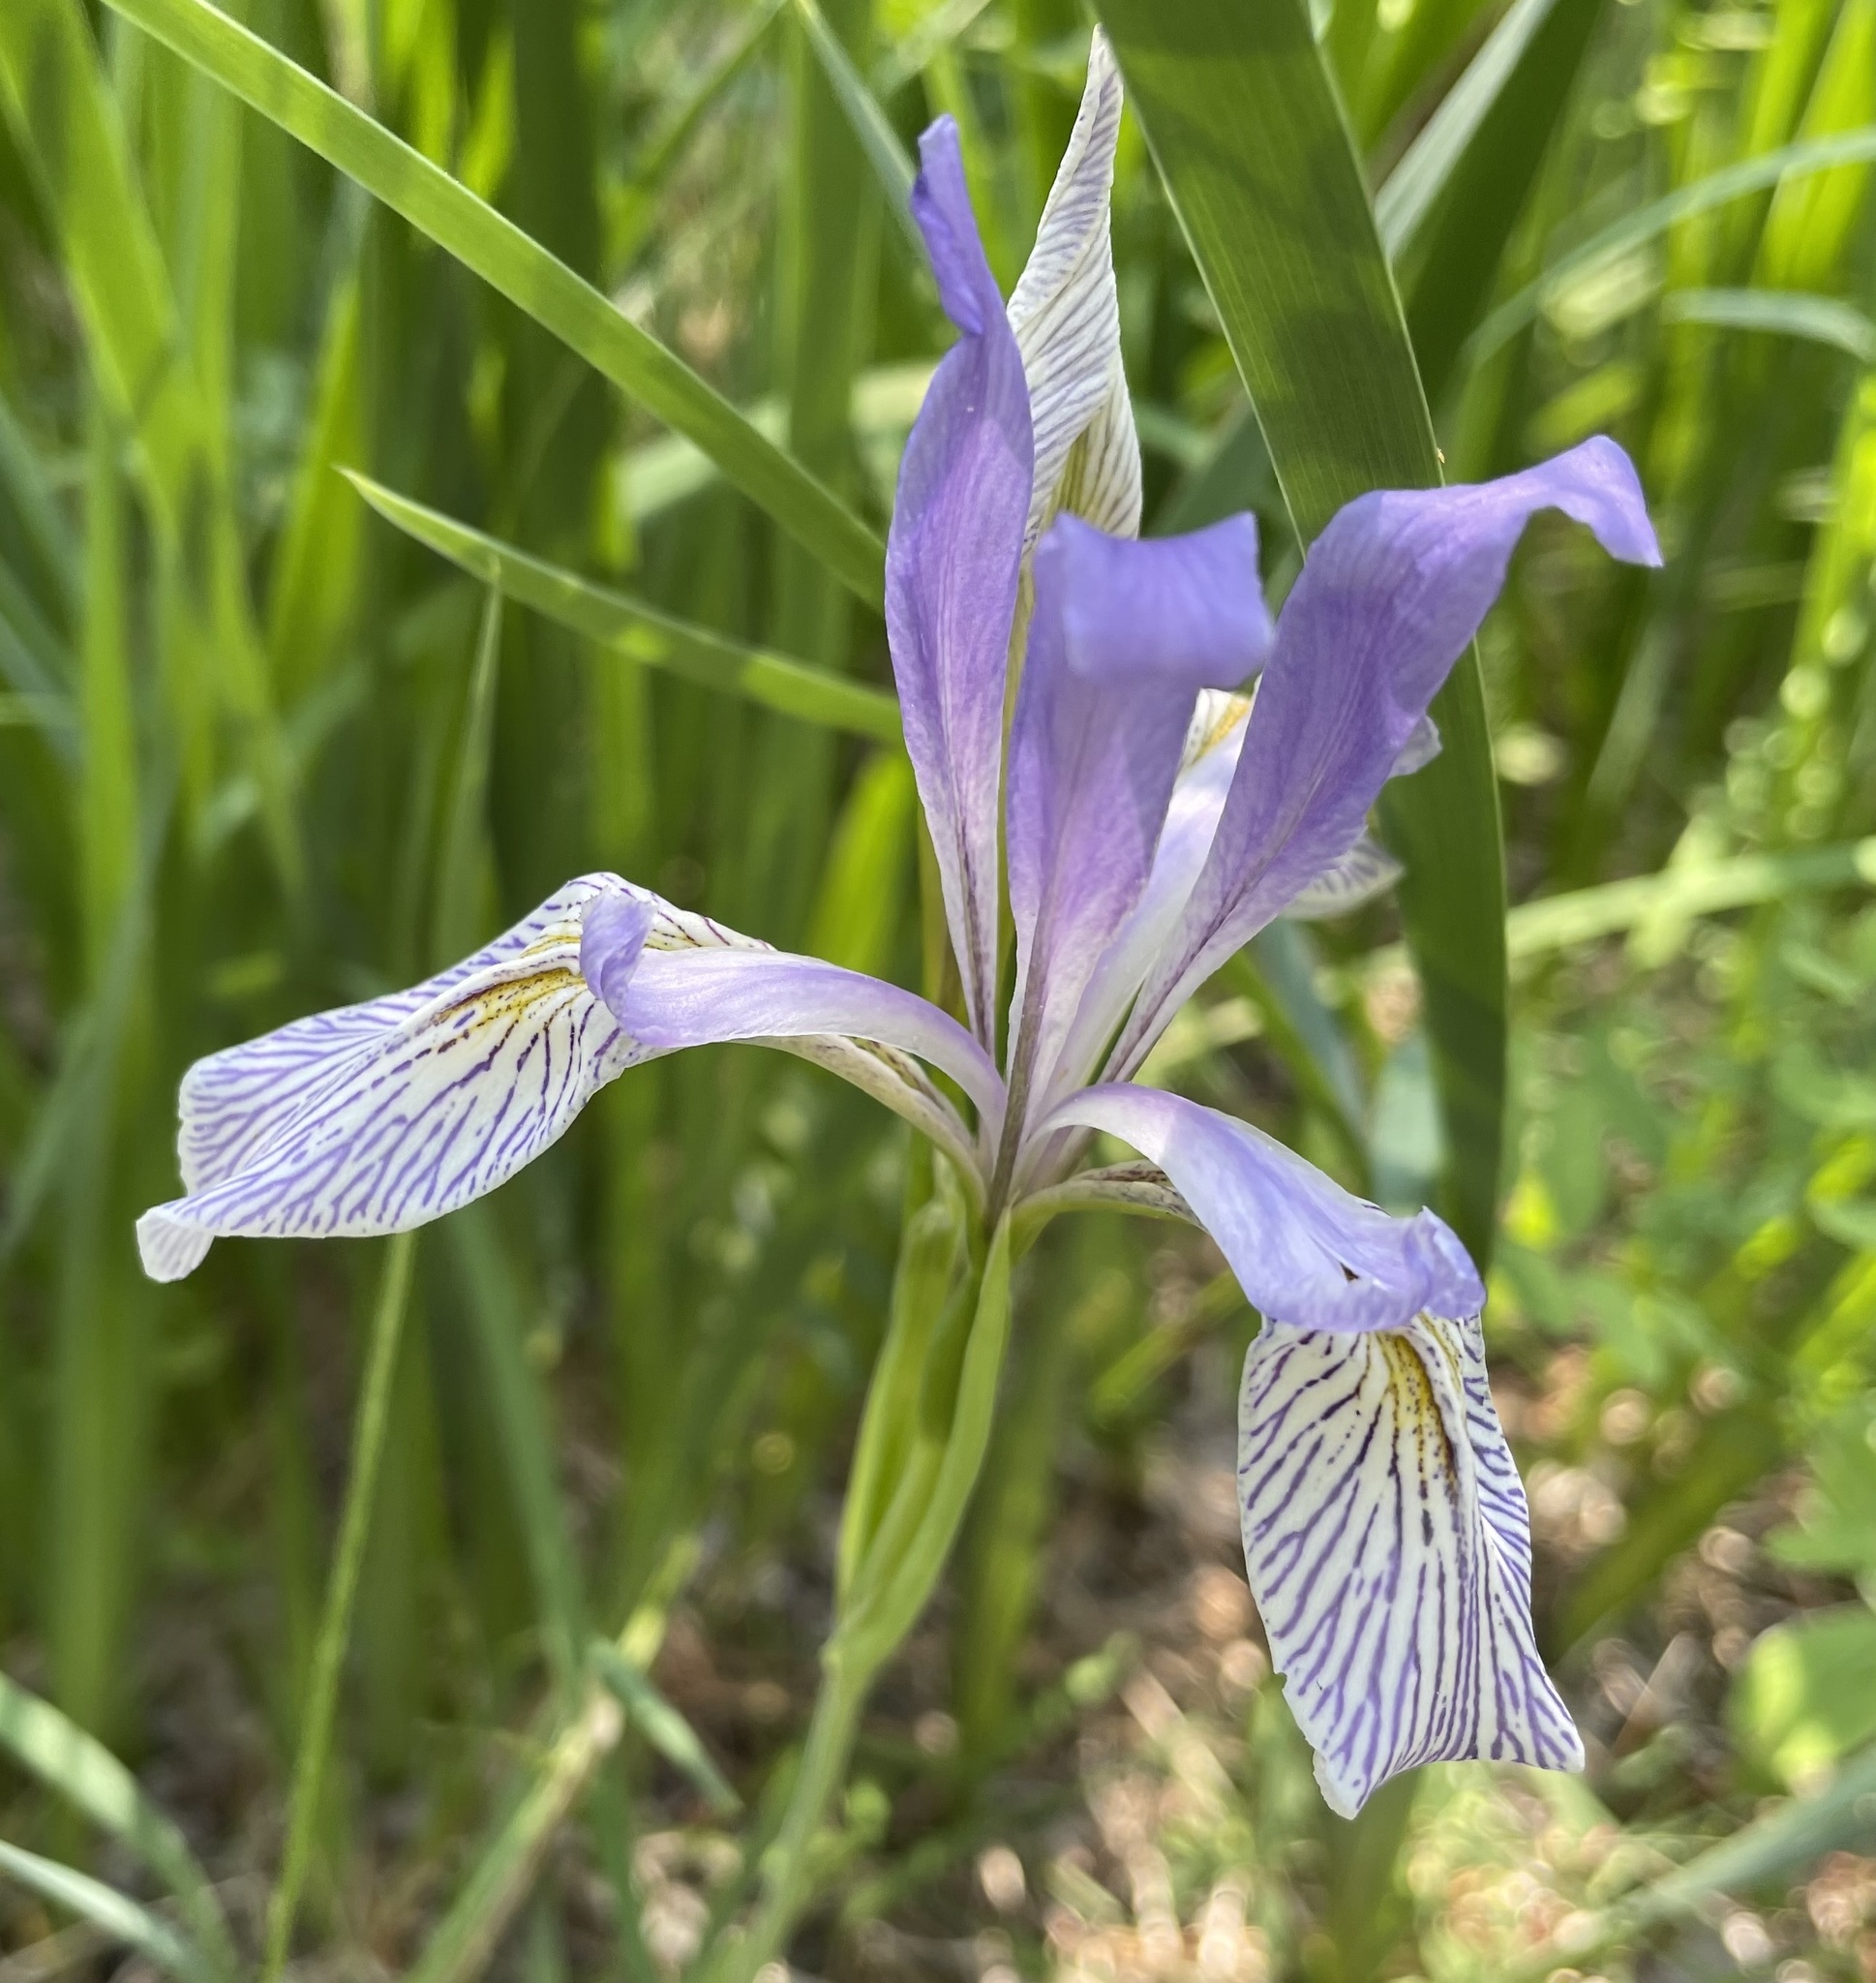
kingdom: Plantae
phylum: Tracheophyta
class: Liliopsida
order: Asparagales
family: Iridaceae
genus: Iris
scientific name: Iris missouriensis
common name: Rocky mountain iris
